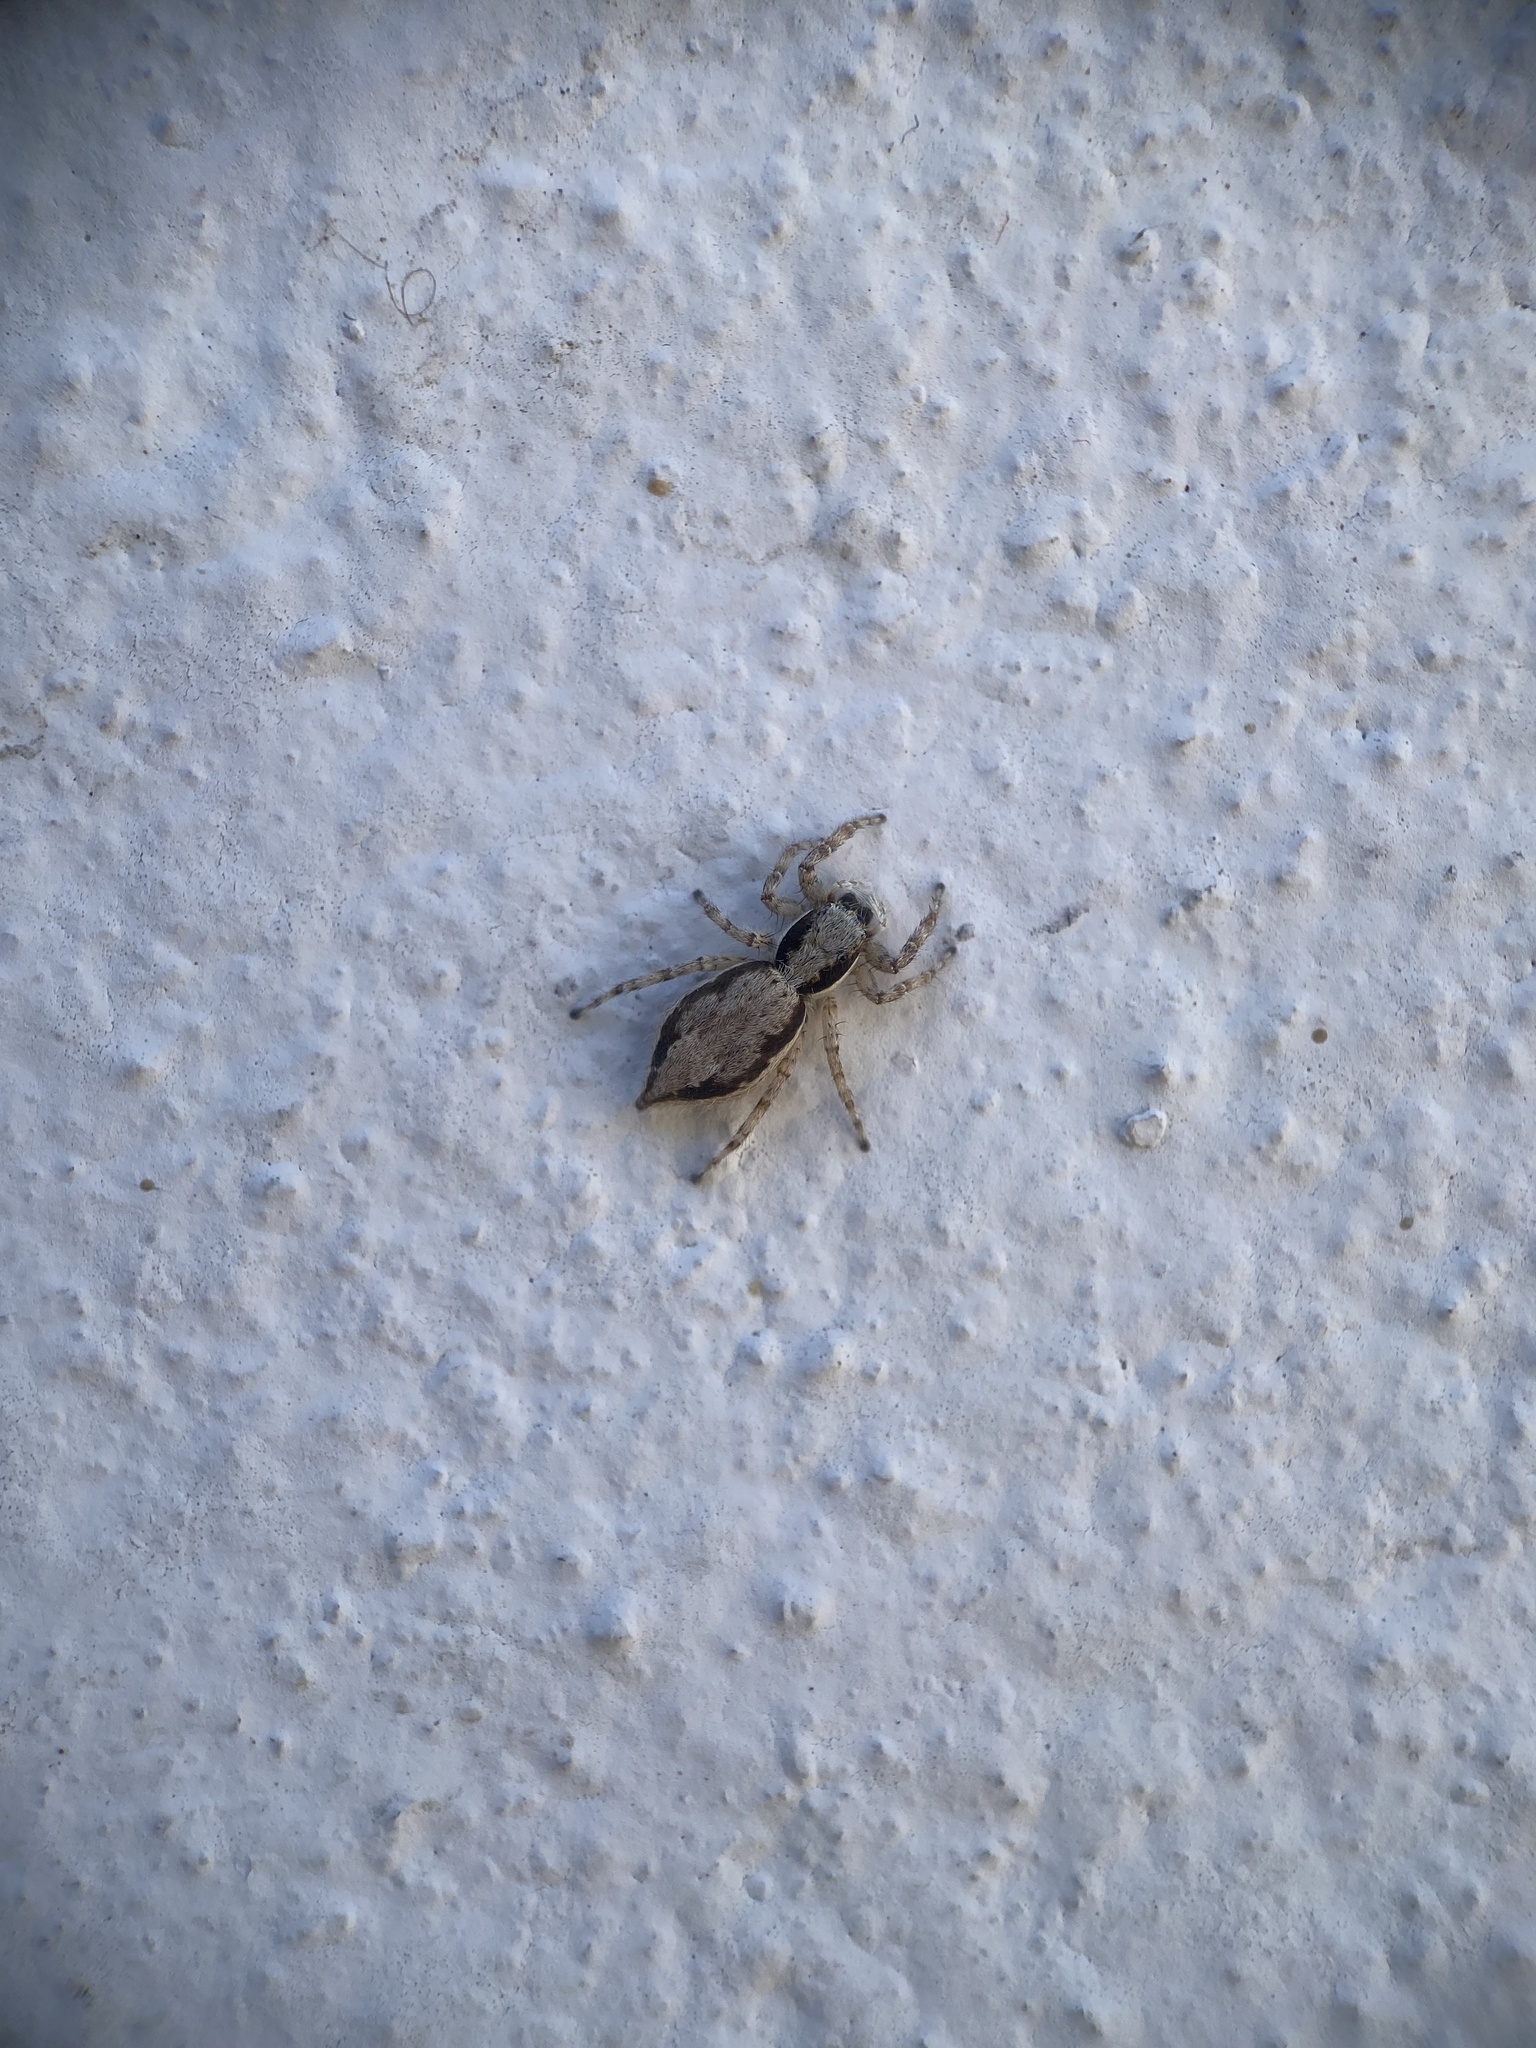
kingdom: Animalia
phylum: Arthropoda
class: Arachnida
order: Araneae
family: Salticidae
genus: Menemerus
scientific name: Menemerus bivittatus
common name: Gray wall jumper
